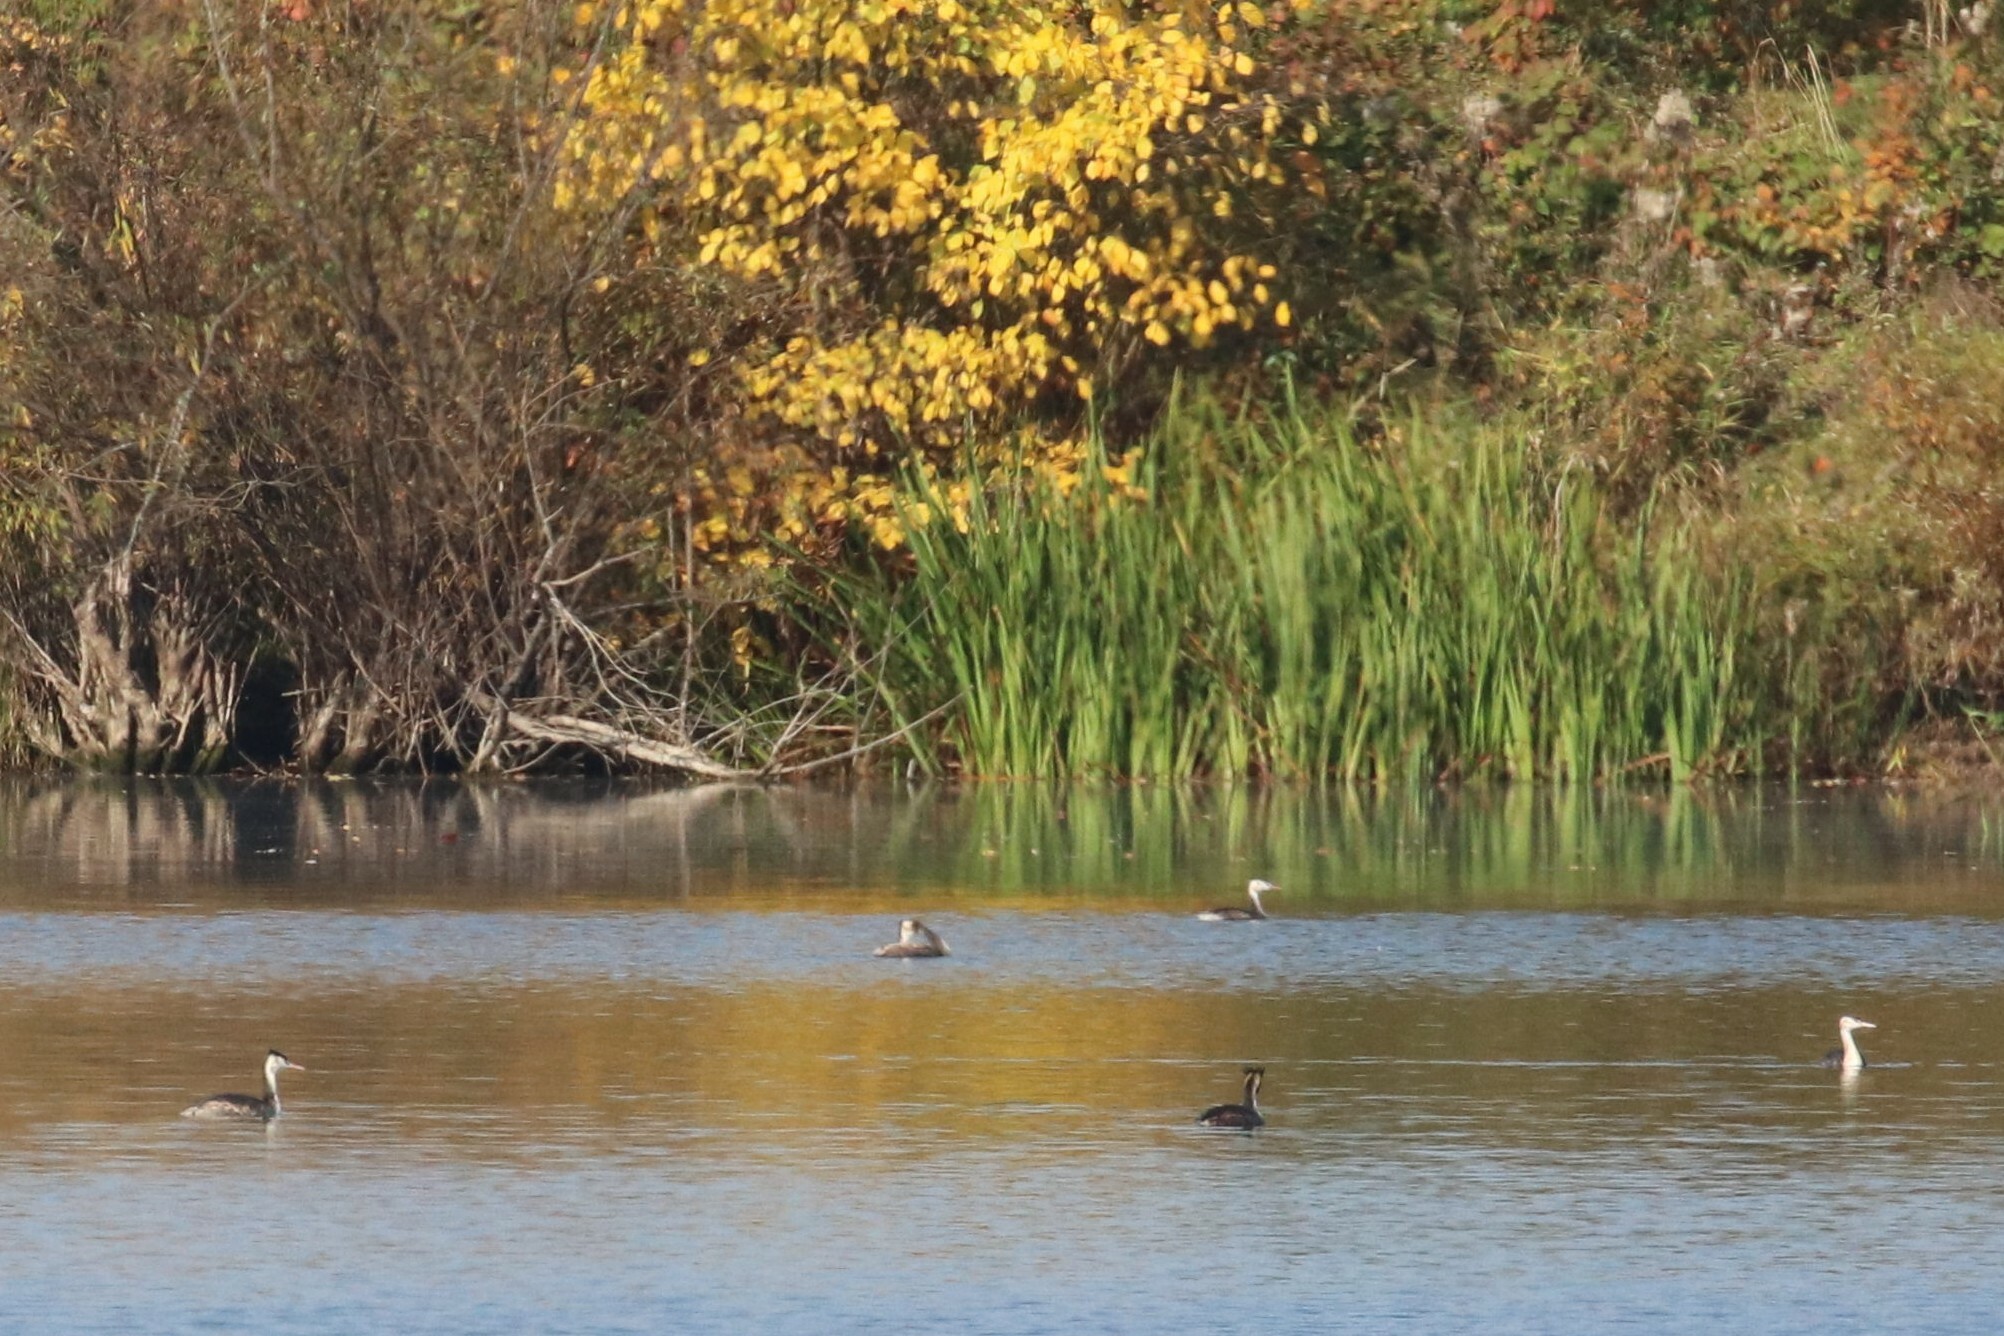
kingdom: Animalia
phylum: Chordata
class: Aves
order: Podicipediformes
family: Podicipedidae
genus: Podiceps
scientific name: Podiceps cristatus
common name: Great crested grebe
